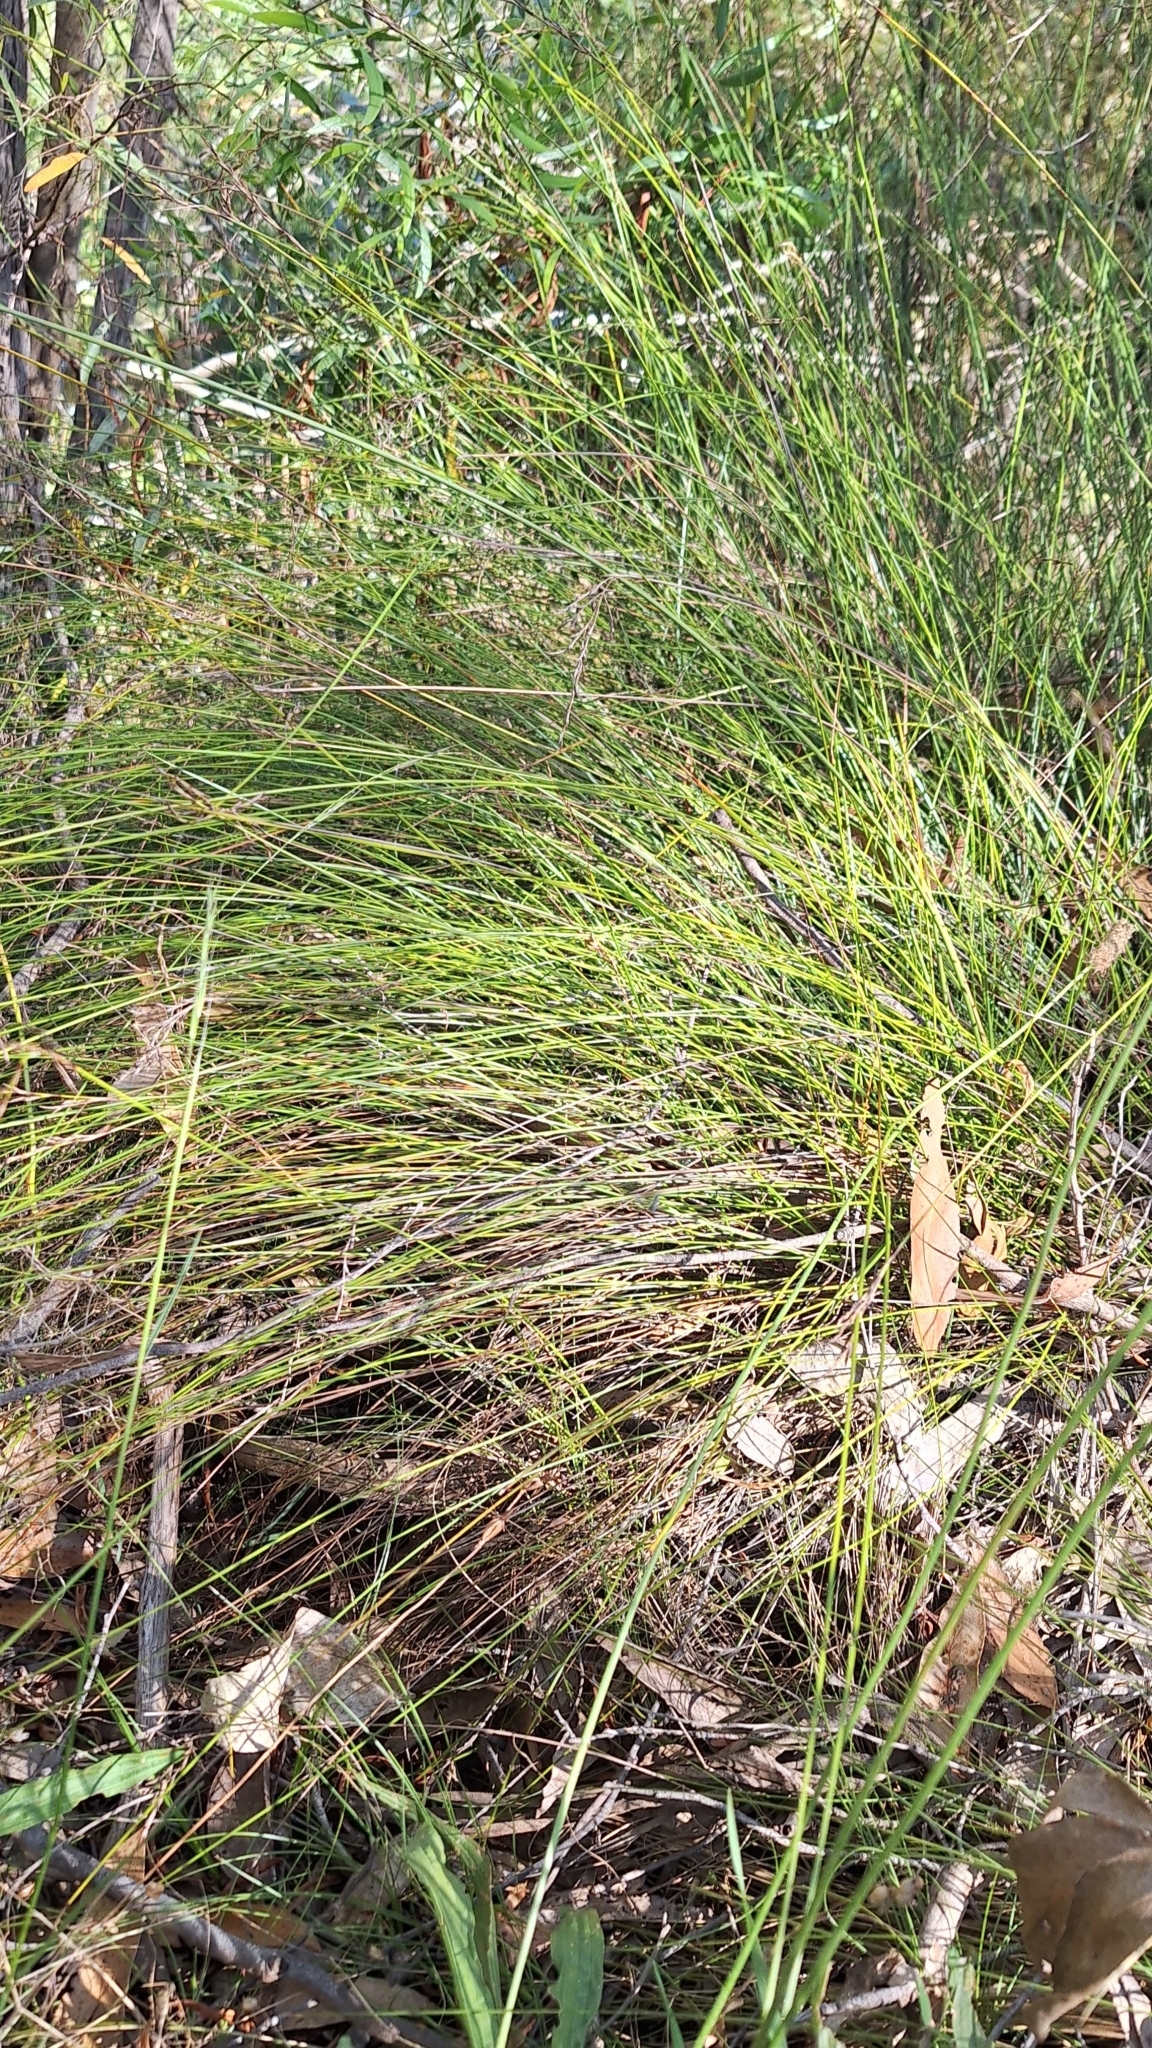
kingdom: Plantae
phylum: Tracheophyta
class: Liliopsida
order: Poales
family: Cyperaceae
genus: Lepidosperma
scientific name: Lepidosperma semiteres
